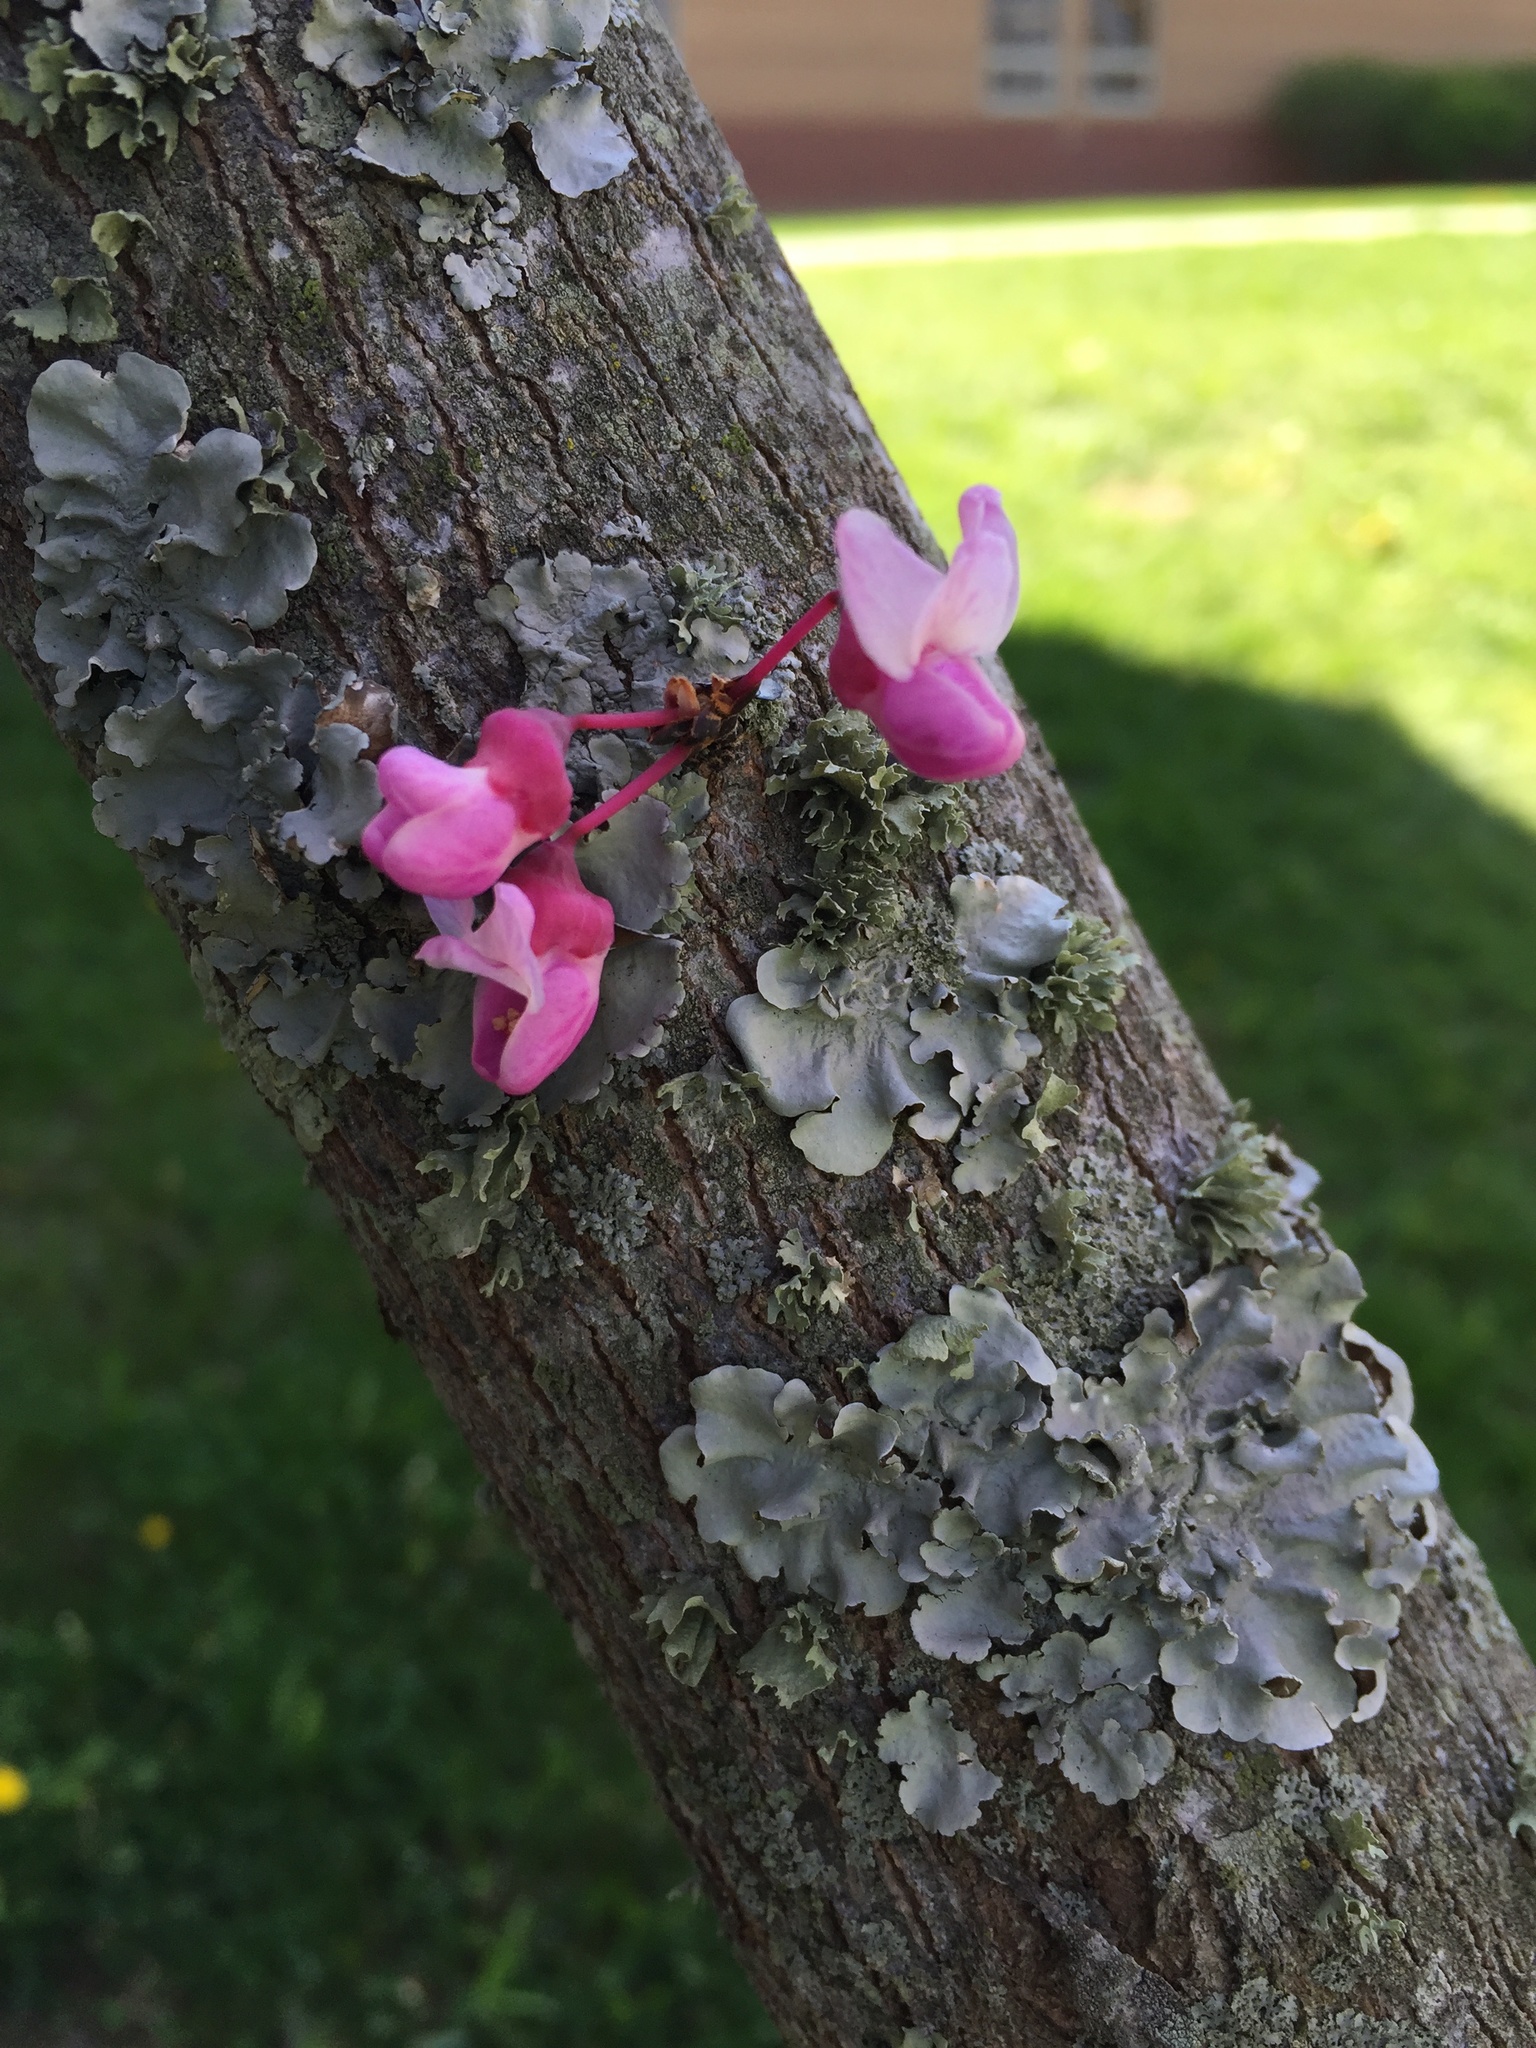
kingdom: Plantae
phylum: Tracheophyta
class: Magnoliopsida
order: Fabales
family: Fabaceae
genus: Cercis
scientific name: Cercis canadensis
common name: Eastern redbud
